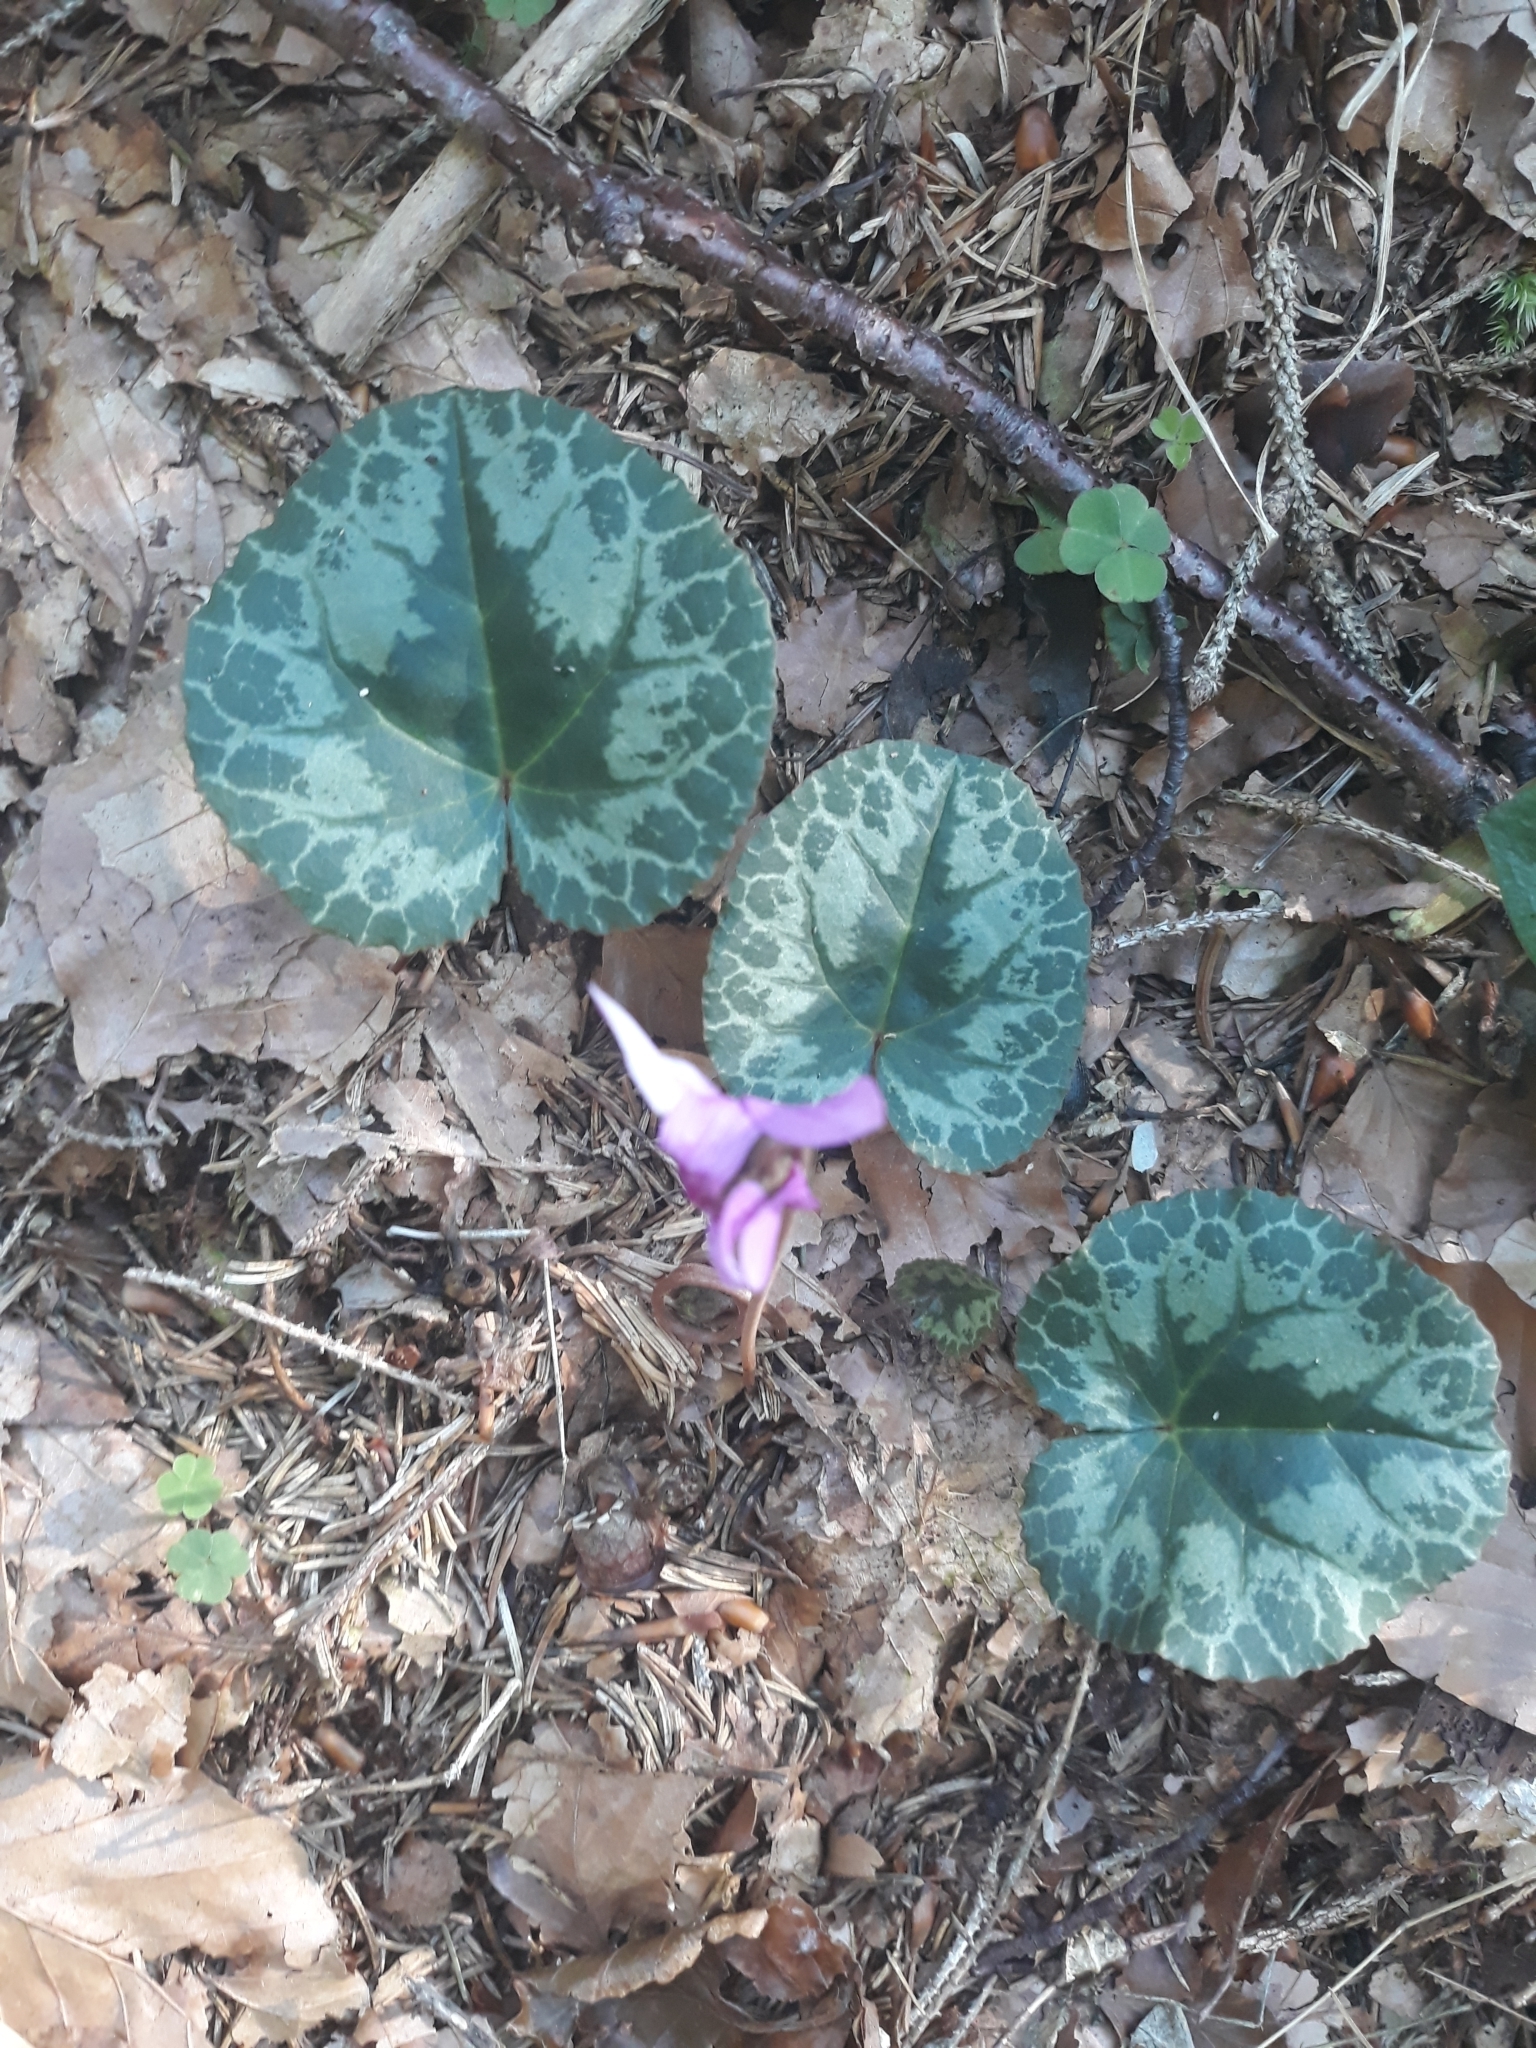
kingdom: Plantae
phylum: Tracheophyta
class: Magnoliopsida
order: Ericales
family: Primulaceae
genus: Cyclamen
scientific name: Cyclamen purpurascens
